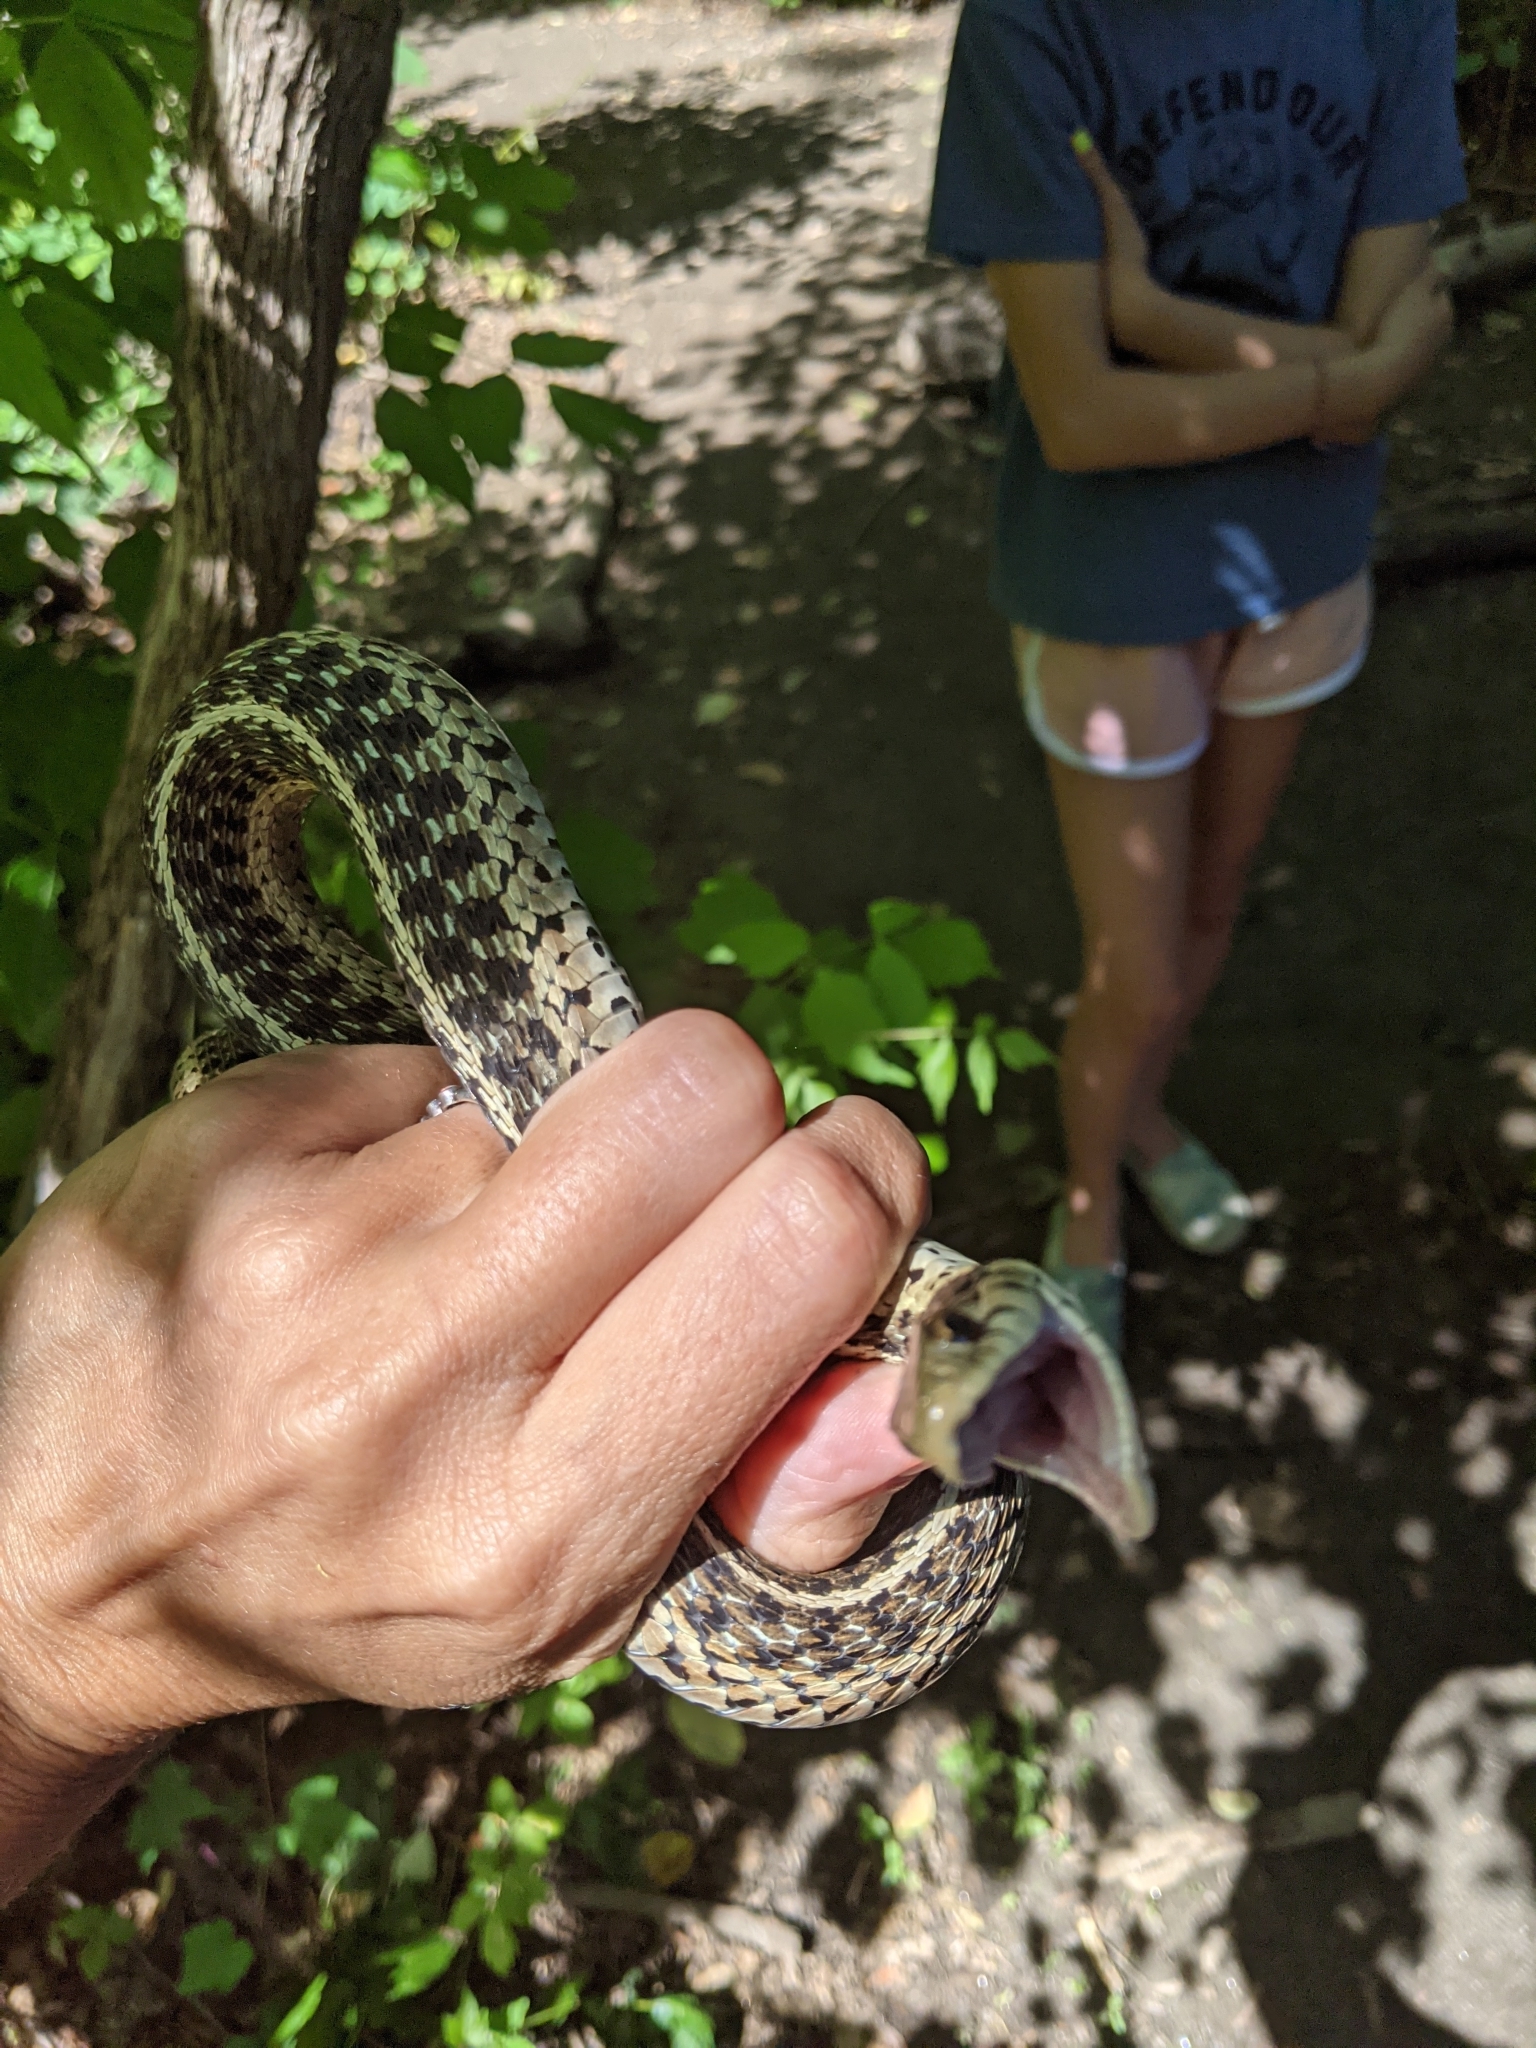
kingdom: Animalia
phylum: Chordata
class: Squamata
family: Colubridae
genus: Thamnophis
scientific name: Thamnophis sirtalis
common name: Common garter snake
